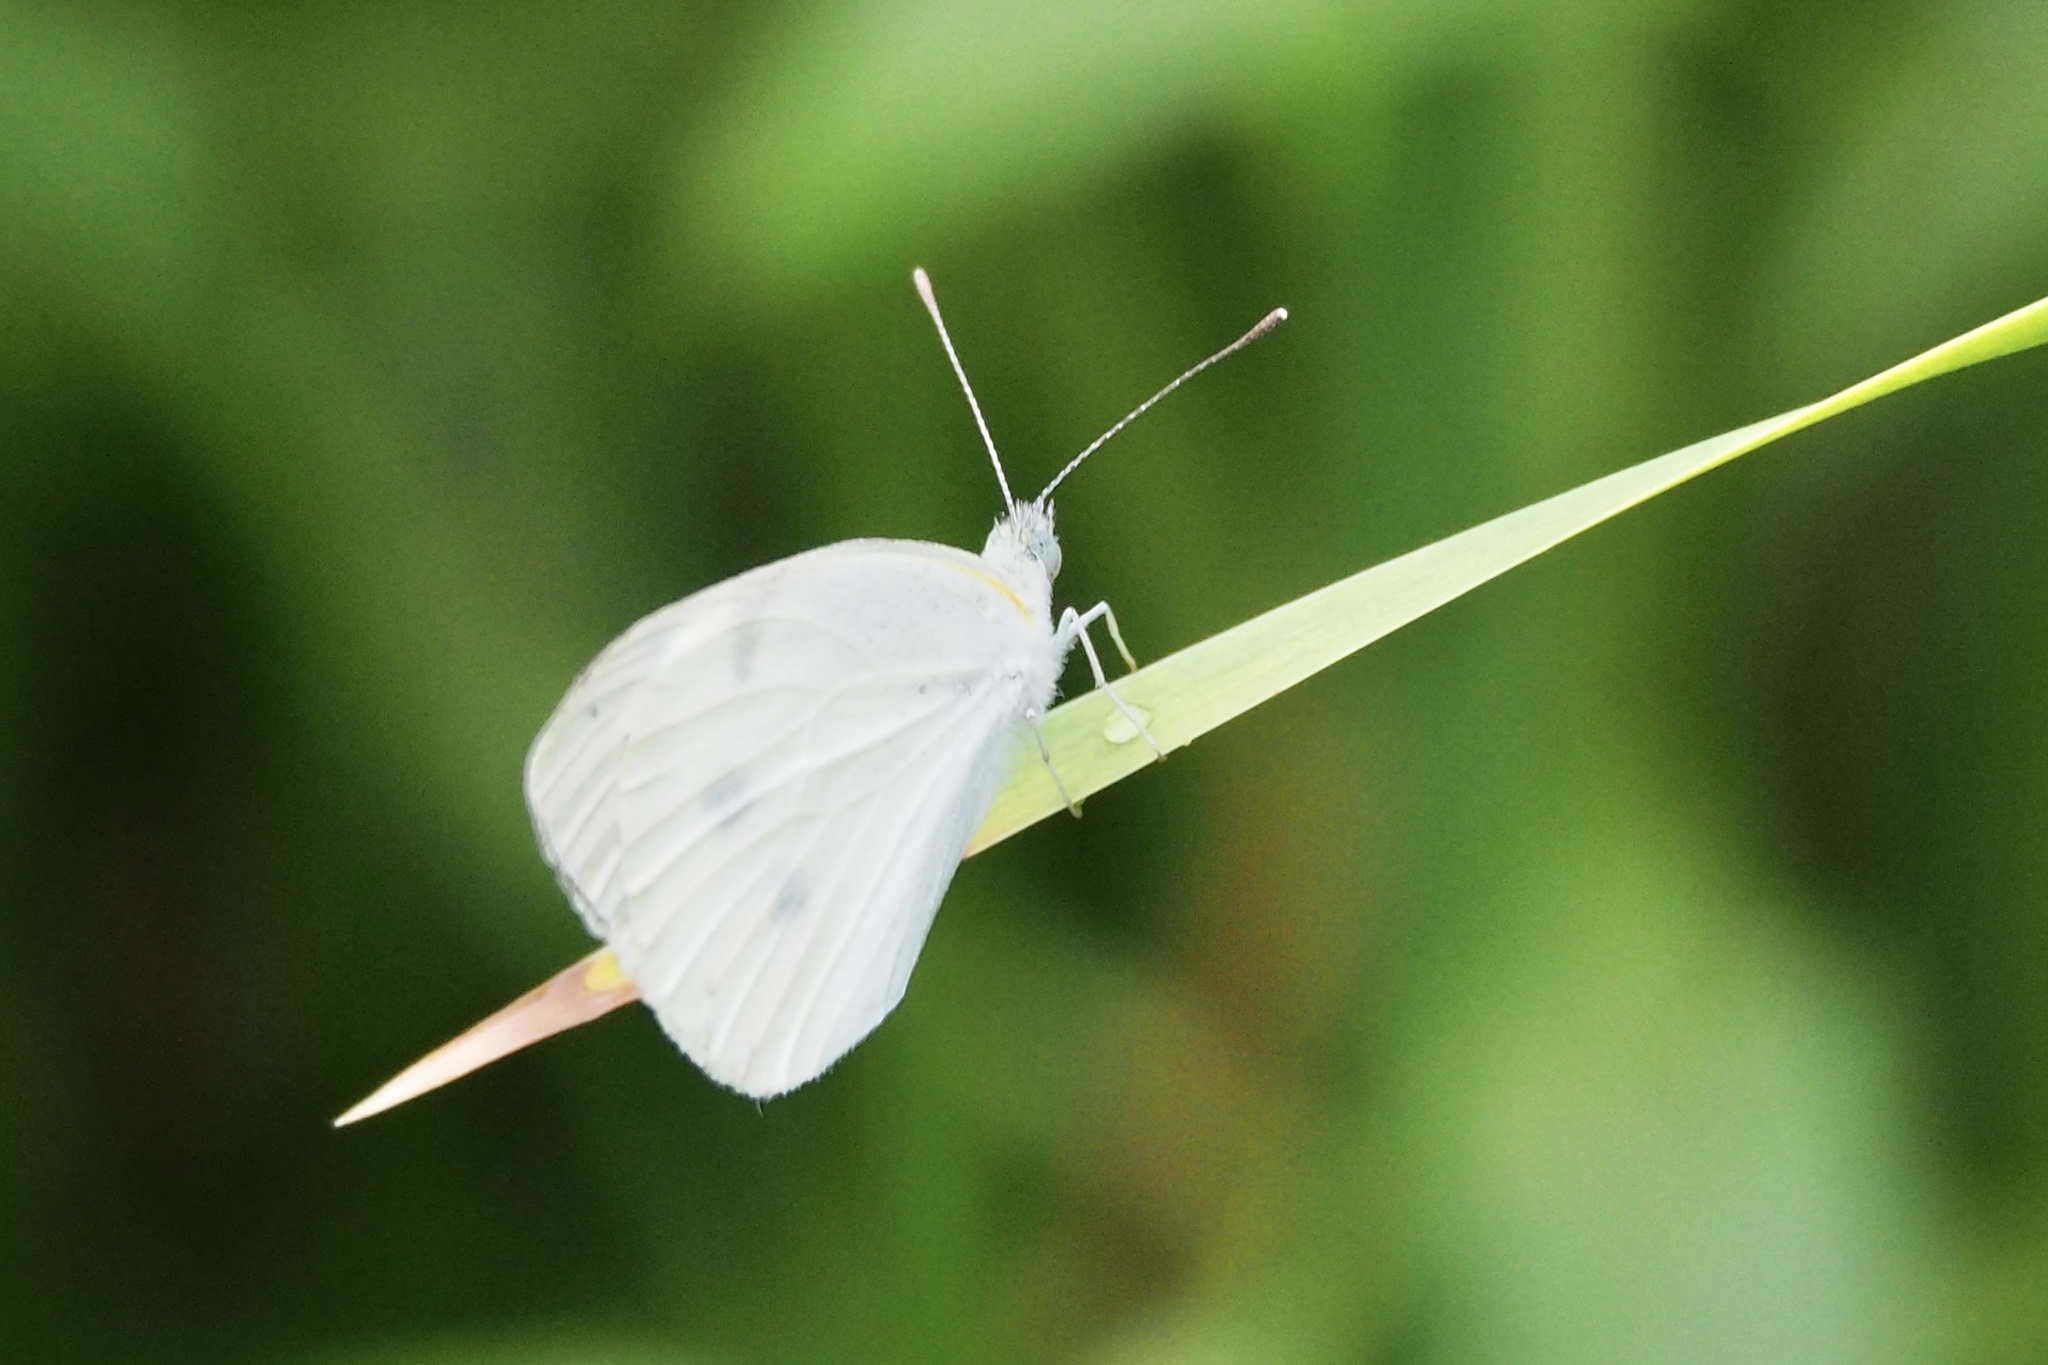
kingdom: Animalia
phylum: Arthropoda
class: Insecta
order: Lepidoptera
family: Pieridae
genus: Pieris
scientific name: Pieris rapae
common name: Small white
